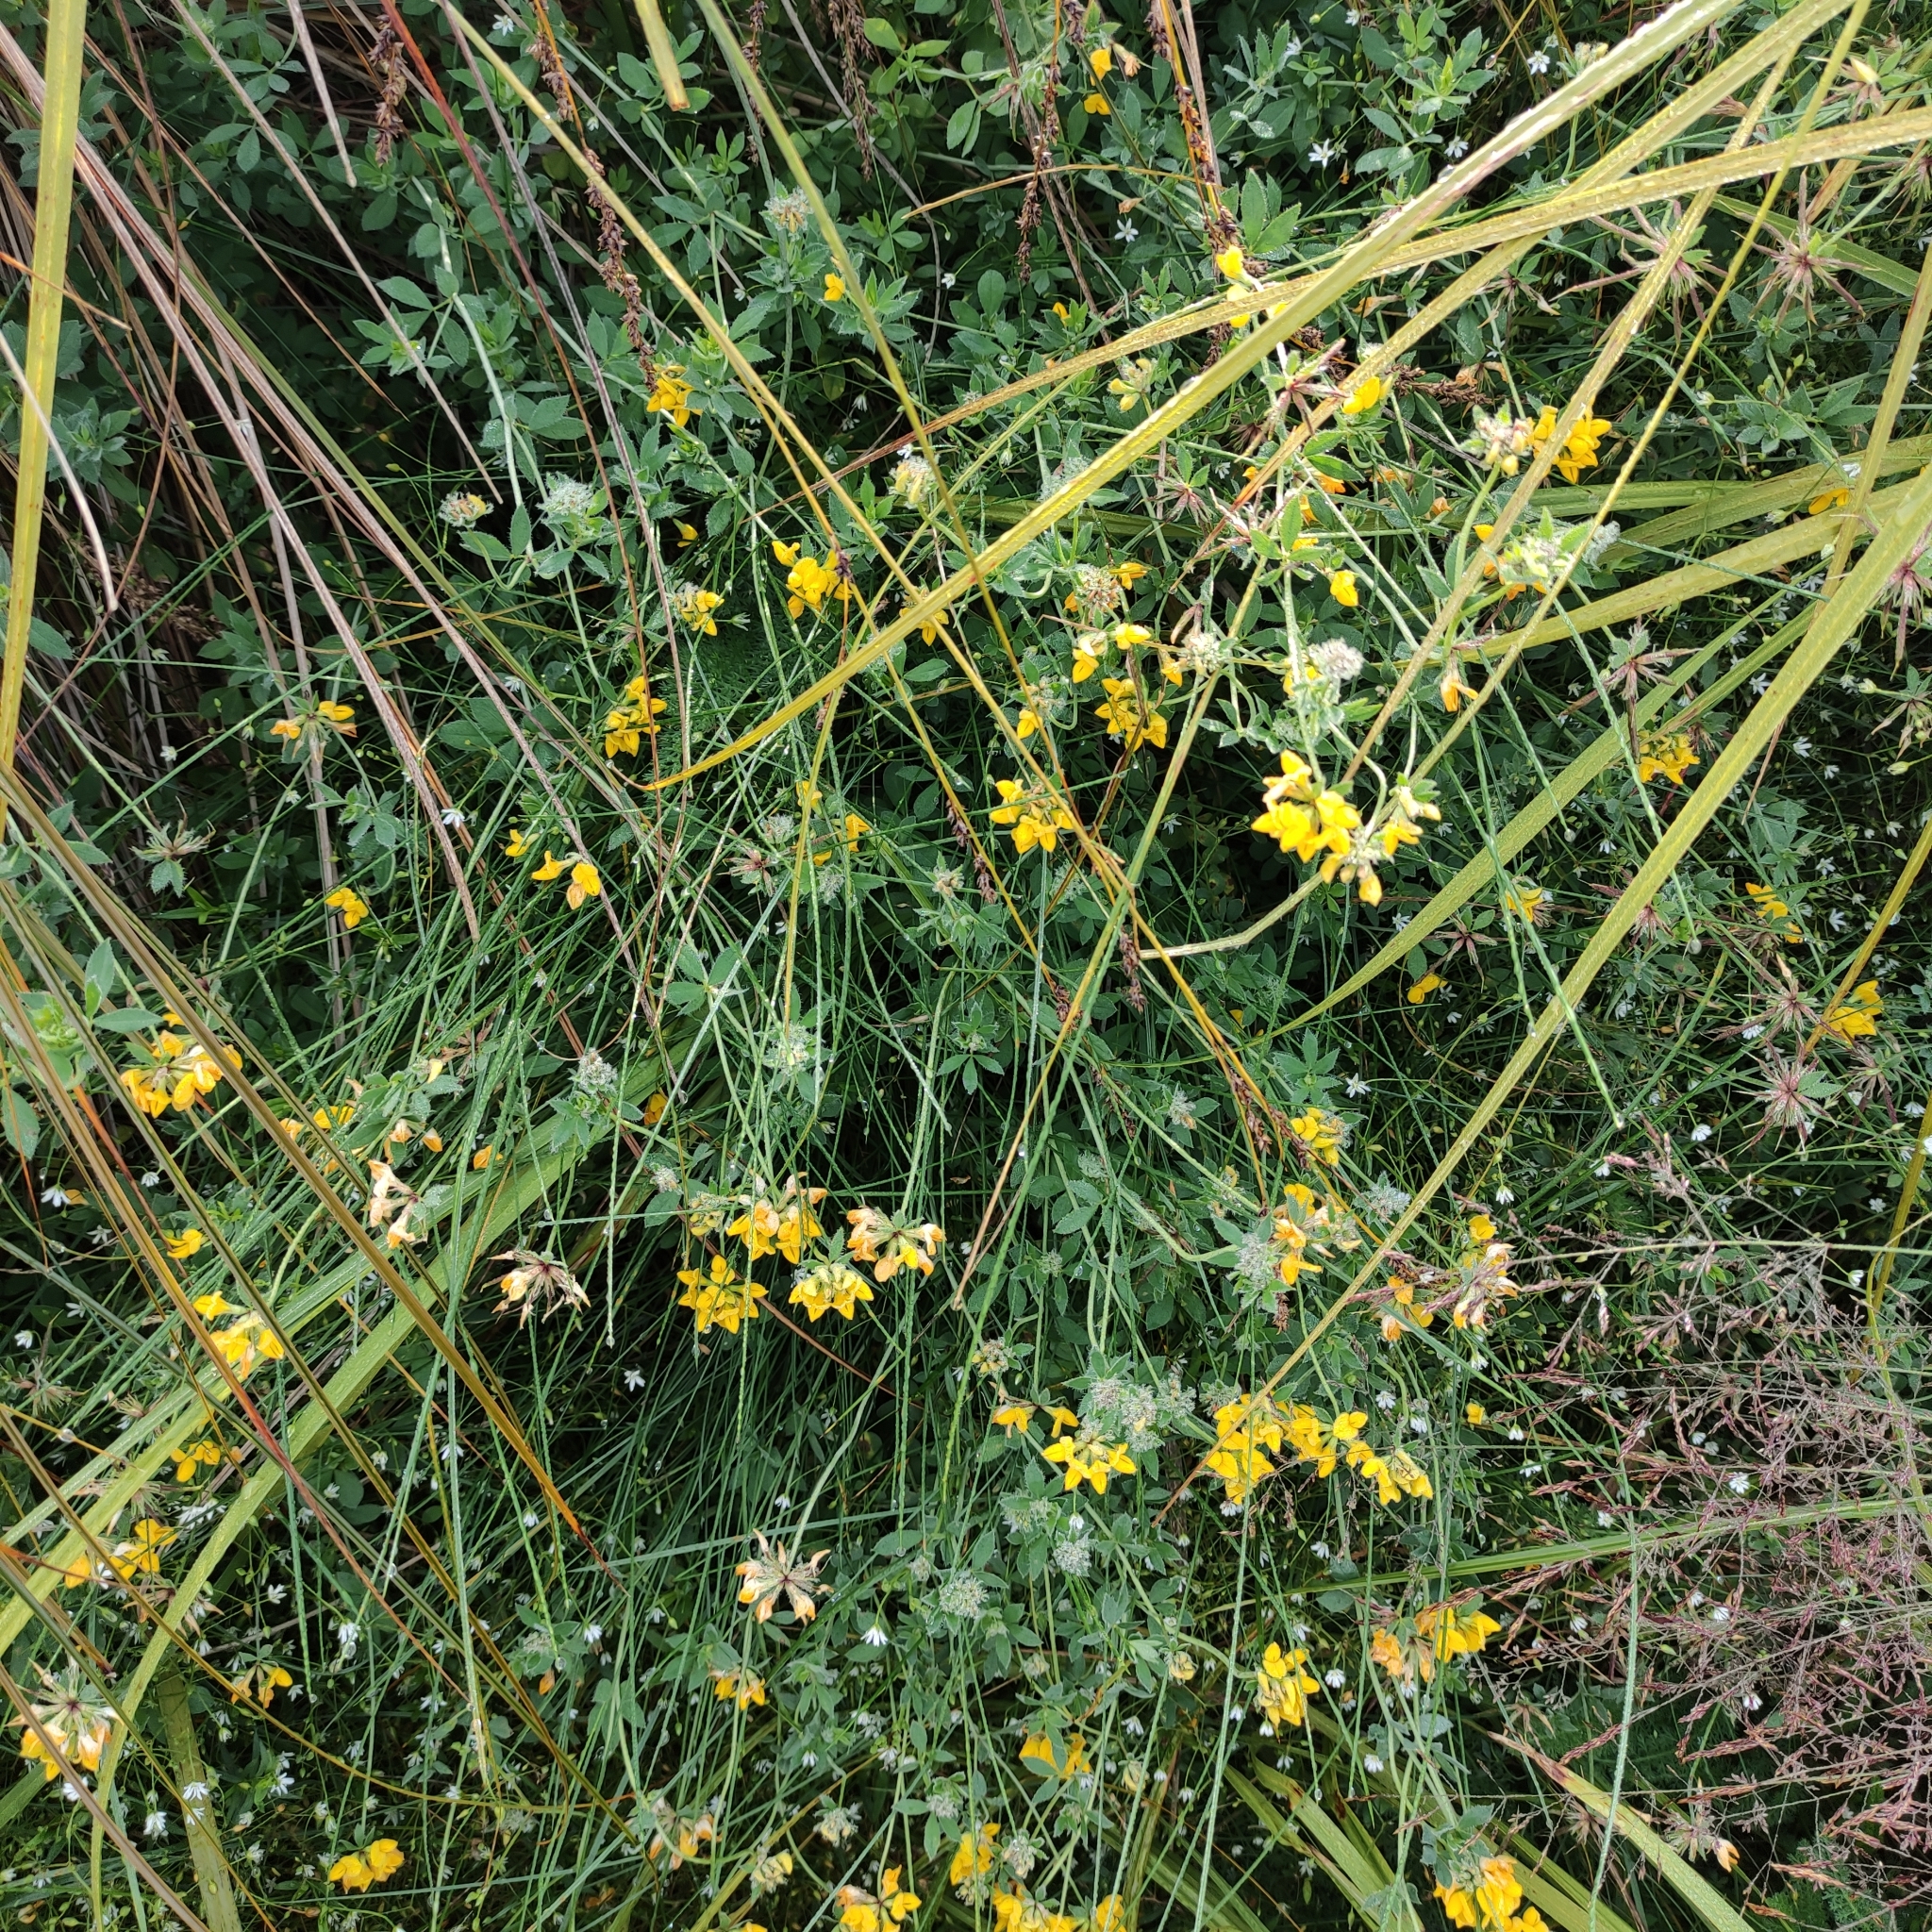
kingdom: Plantae
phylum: Tracheophyta
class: Magnoliopsida
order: Fabales
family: Fabaceae
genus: Lotus
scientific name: Lotus pedunculatus
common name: Greater birdsfoot-trefoil
